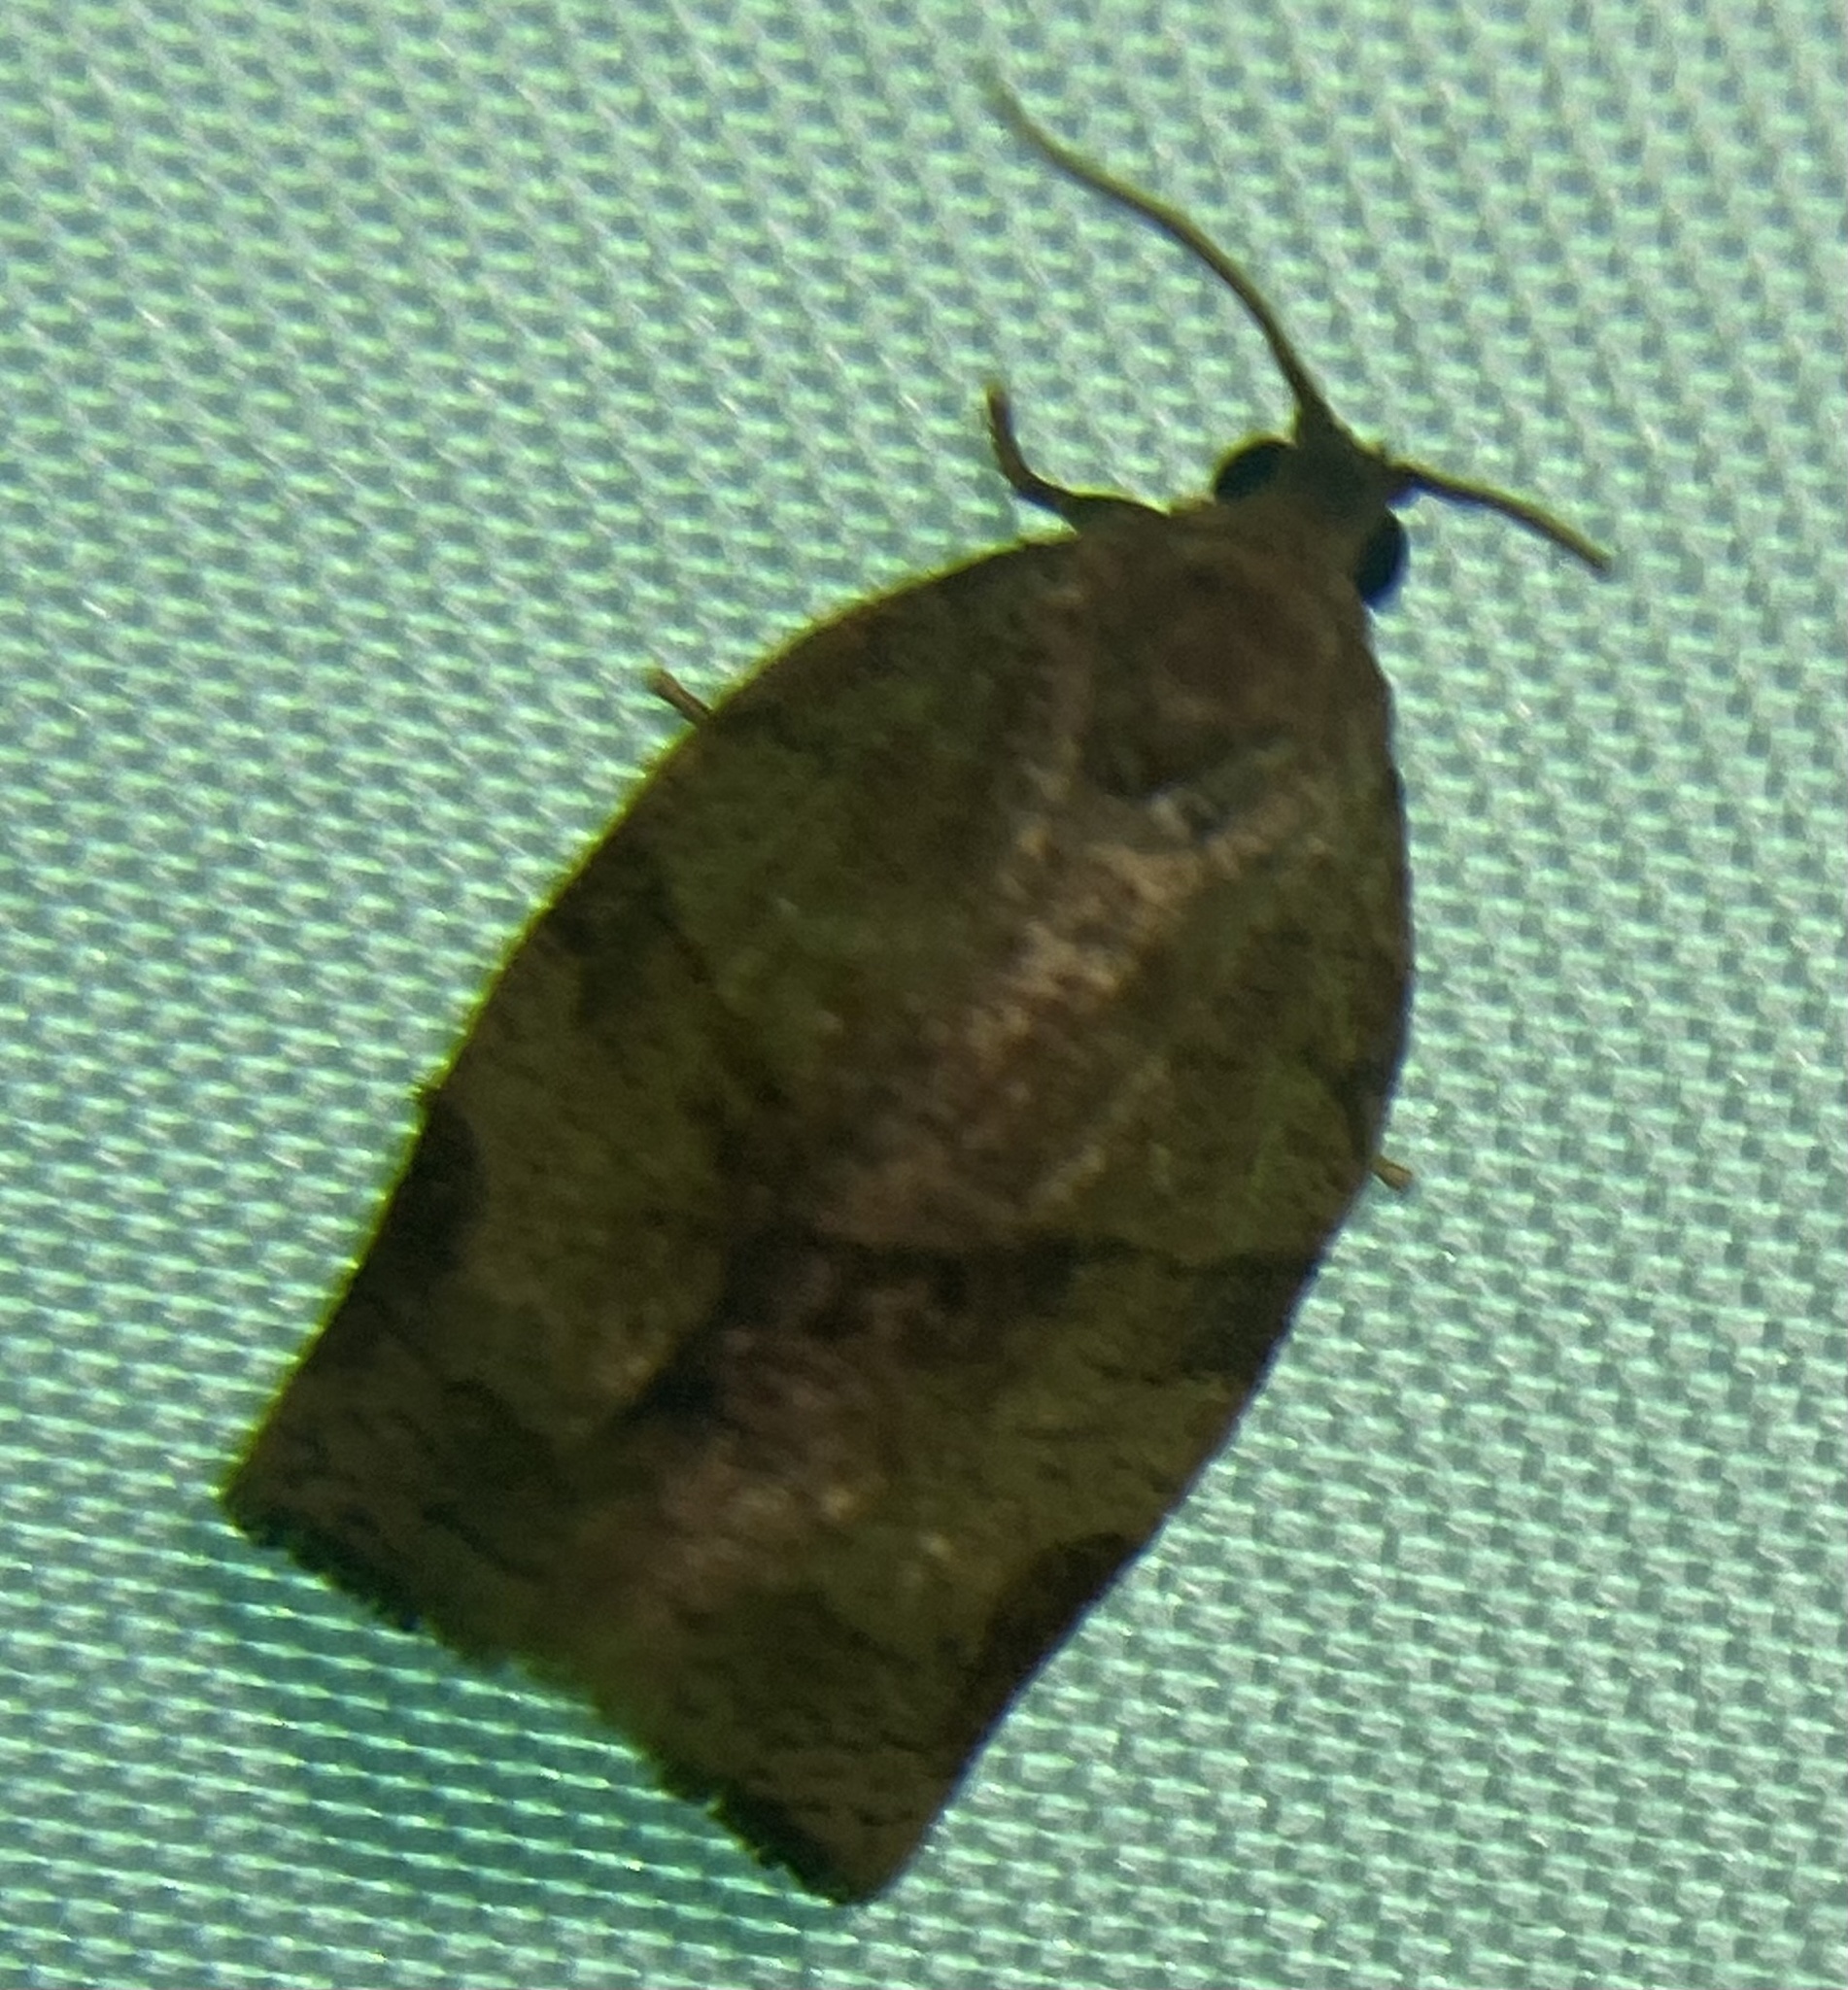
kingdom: Animalia
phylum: Arthropoda
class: Insecta
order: Lepidoptera
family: Tortricidae
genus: Choristoneura
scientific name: Choristoneura rosaceana
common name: Oblique-banded leafroller moth
